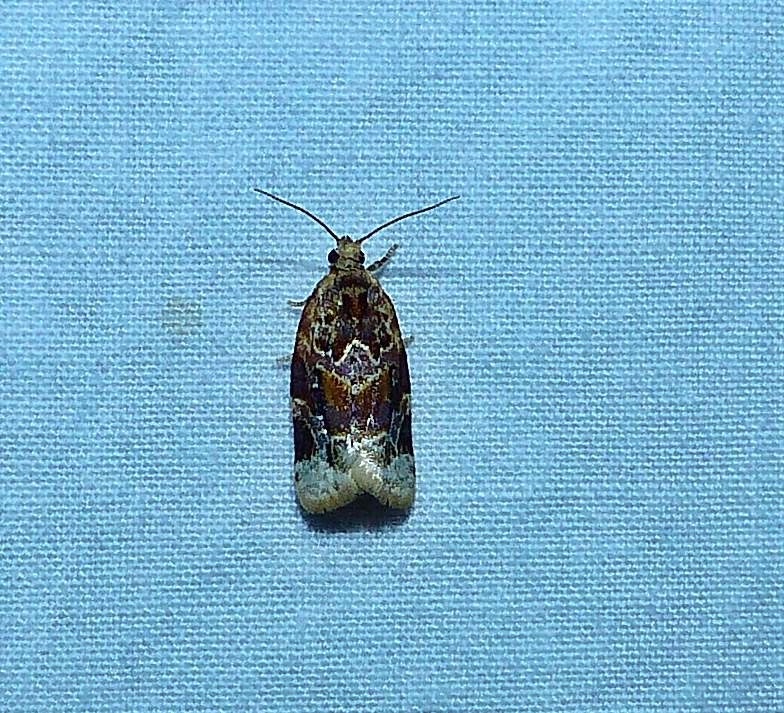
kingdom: Animalia
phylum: Arthropoda
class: Insecta
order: Lepidoptera
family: Tortricidae
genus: Argyrotaenia
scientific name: Argyrotaenia velutinana
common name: Red-banded leafroller moth
